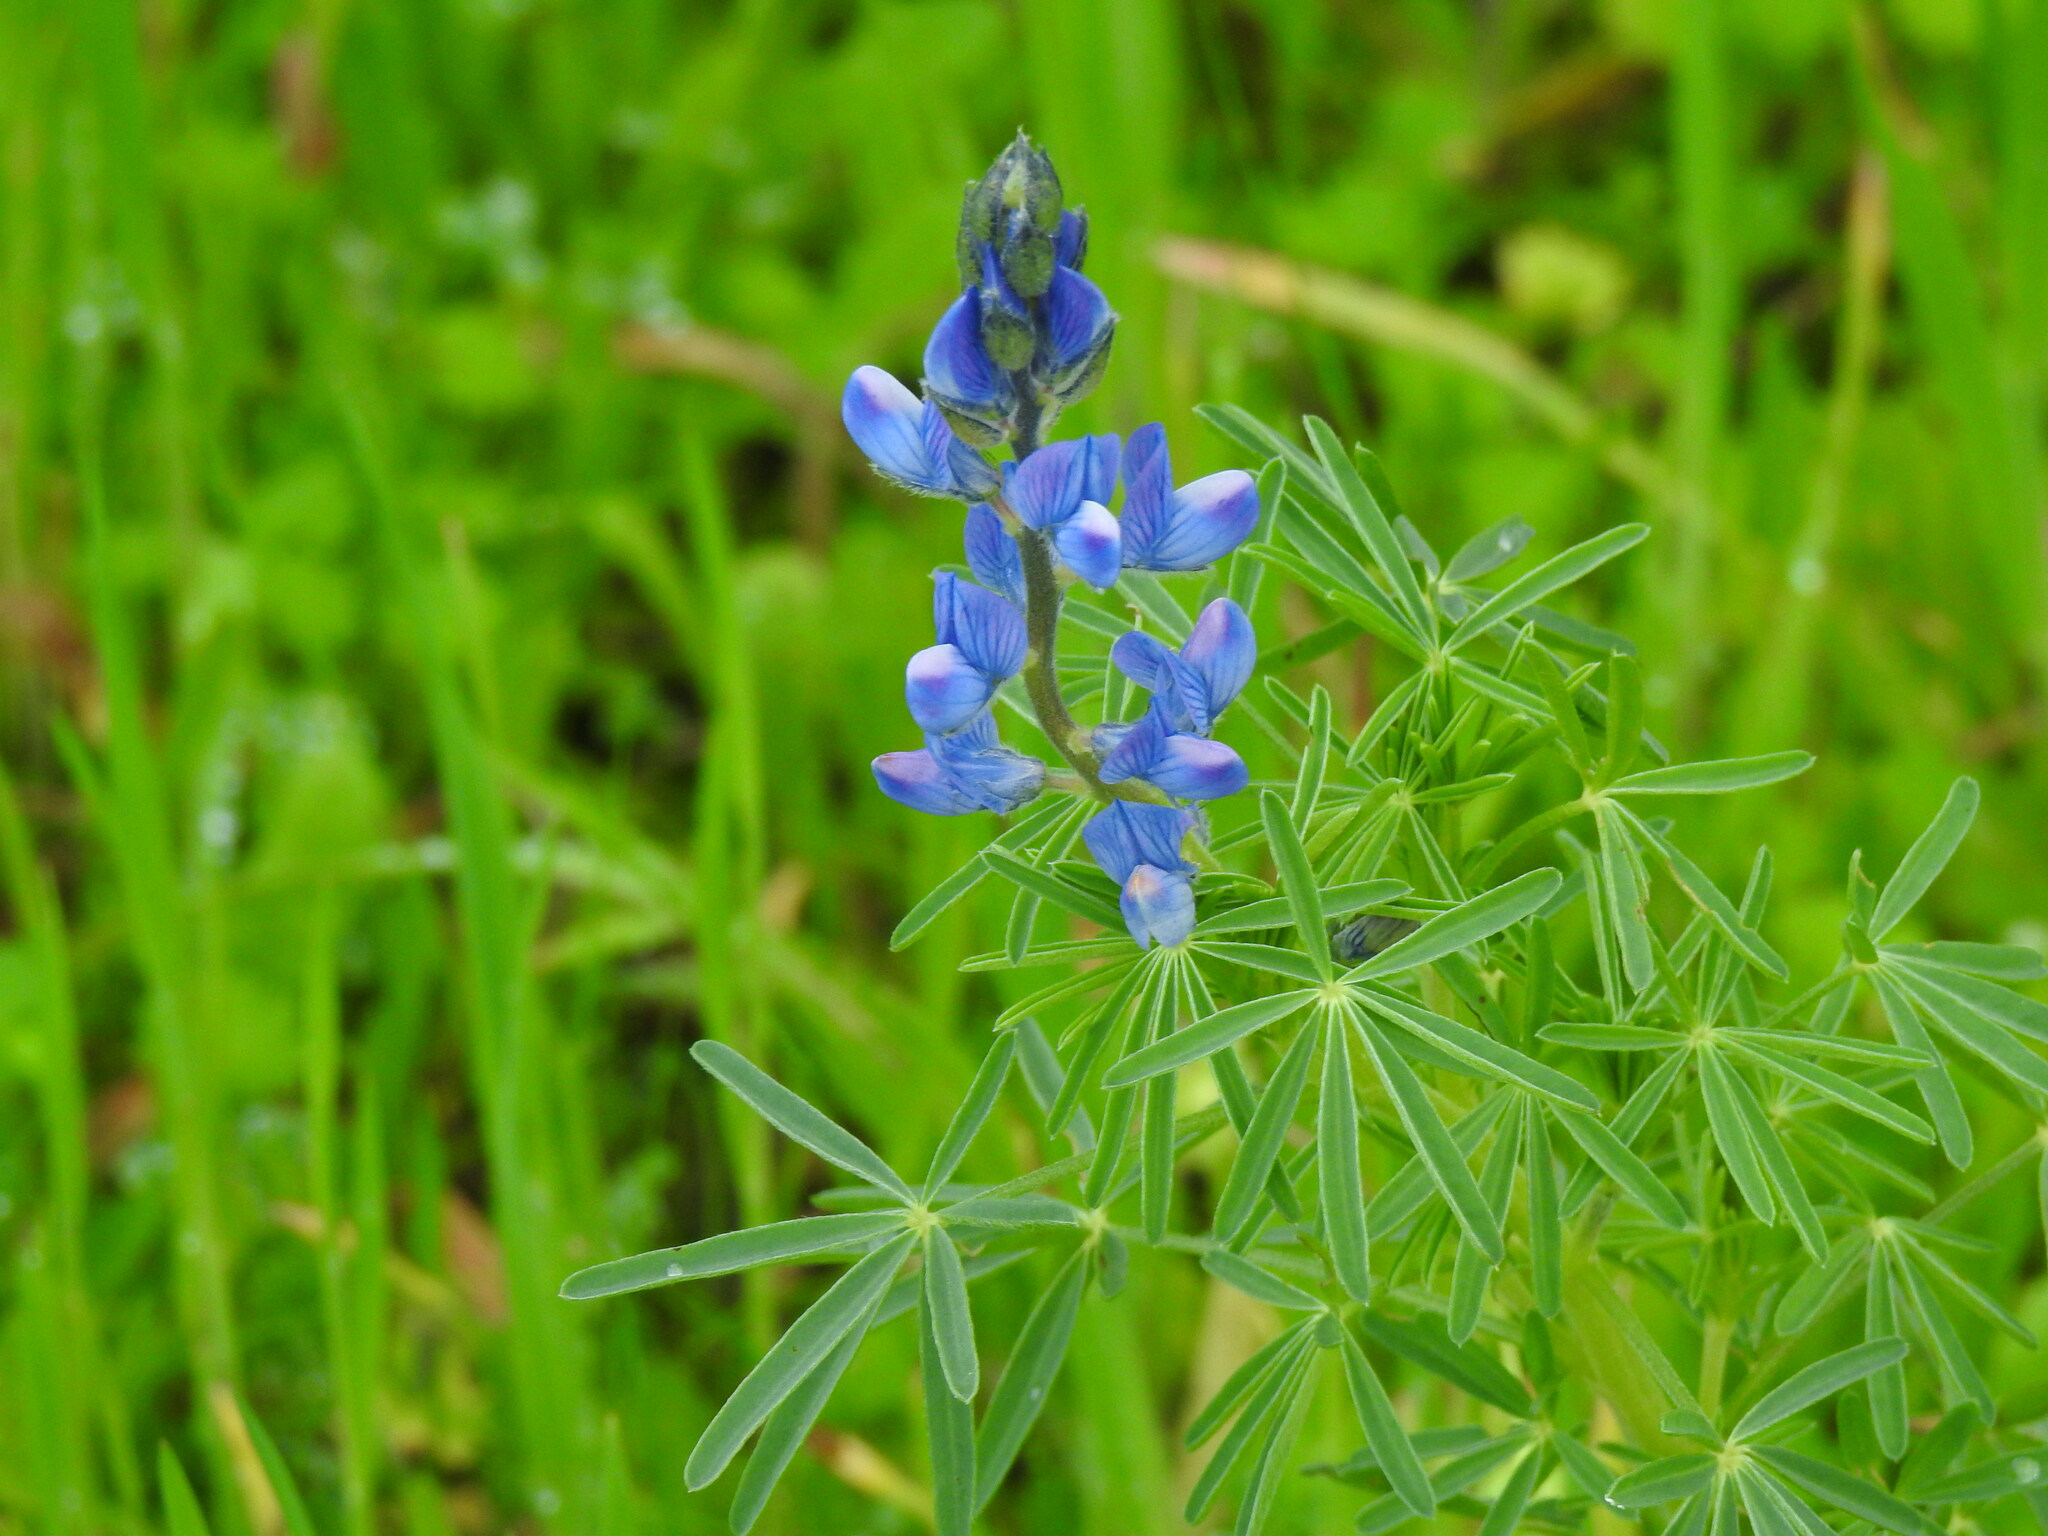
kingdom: Plantae
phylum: Tracheophyta
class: Magnoliopsida
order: Fabales
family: Fabaceae
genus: Lupinus
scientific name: Lupinus angustifolius
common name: Narrow-leaved lupin
